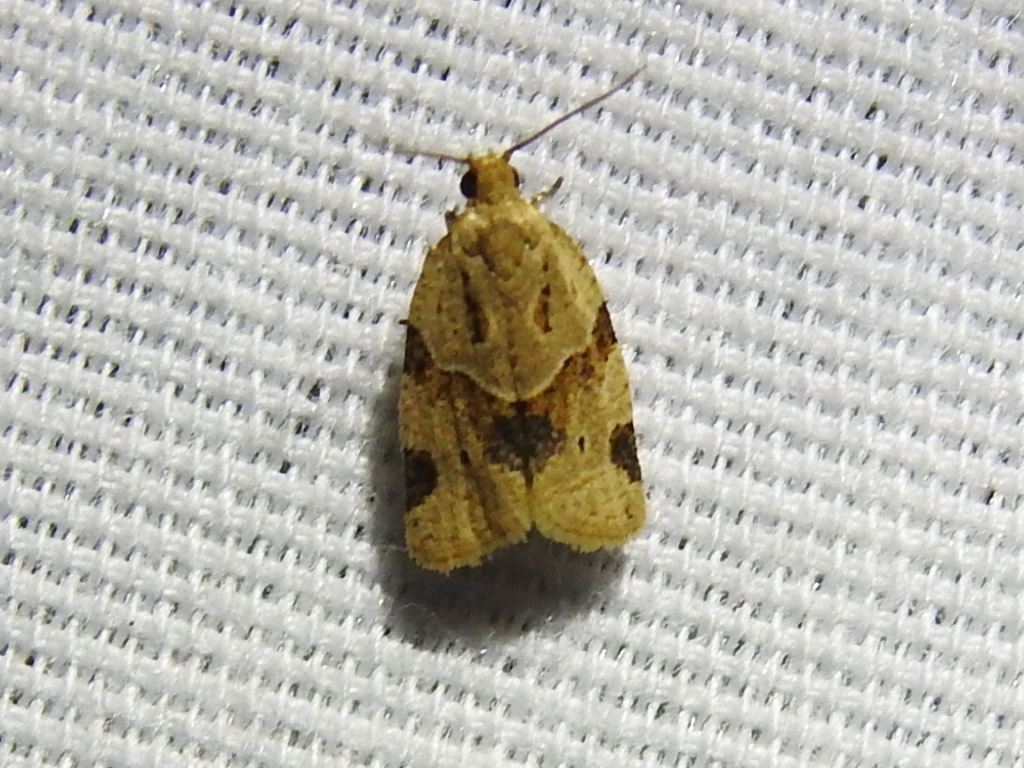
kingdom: Animalia
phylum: Arthropoda
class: Insecta
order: Lepidoptera
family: Tortricidae
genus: Clepsis
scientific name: Clepsis peritana
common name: Garden tortrix
